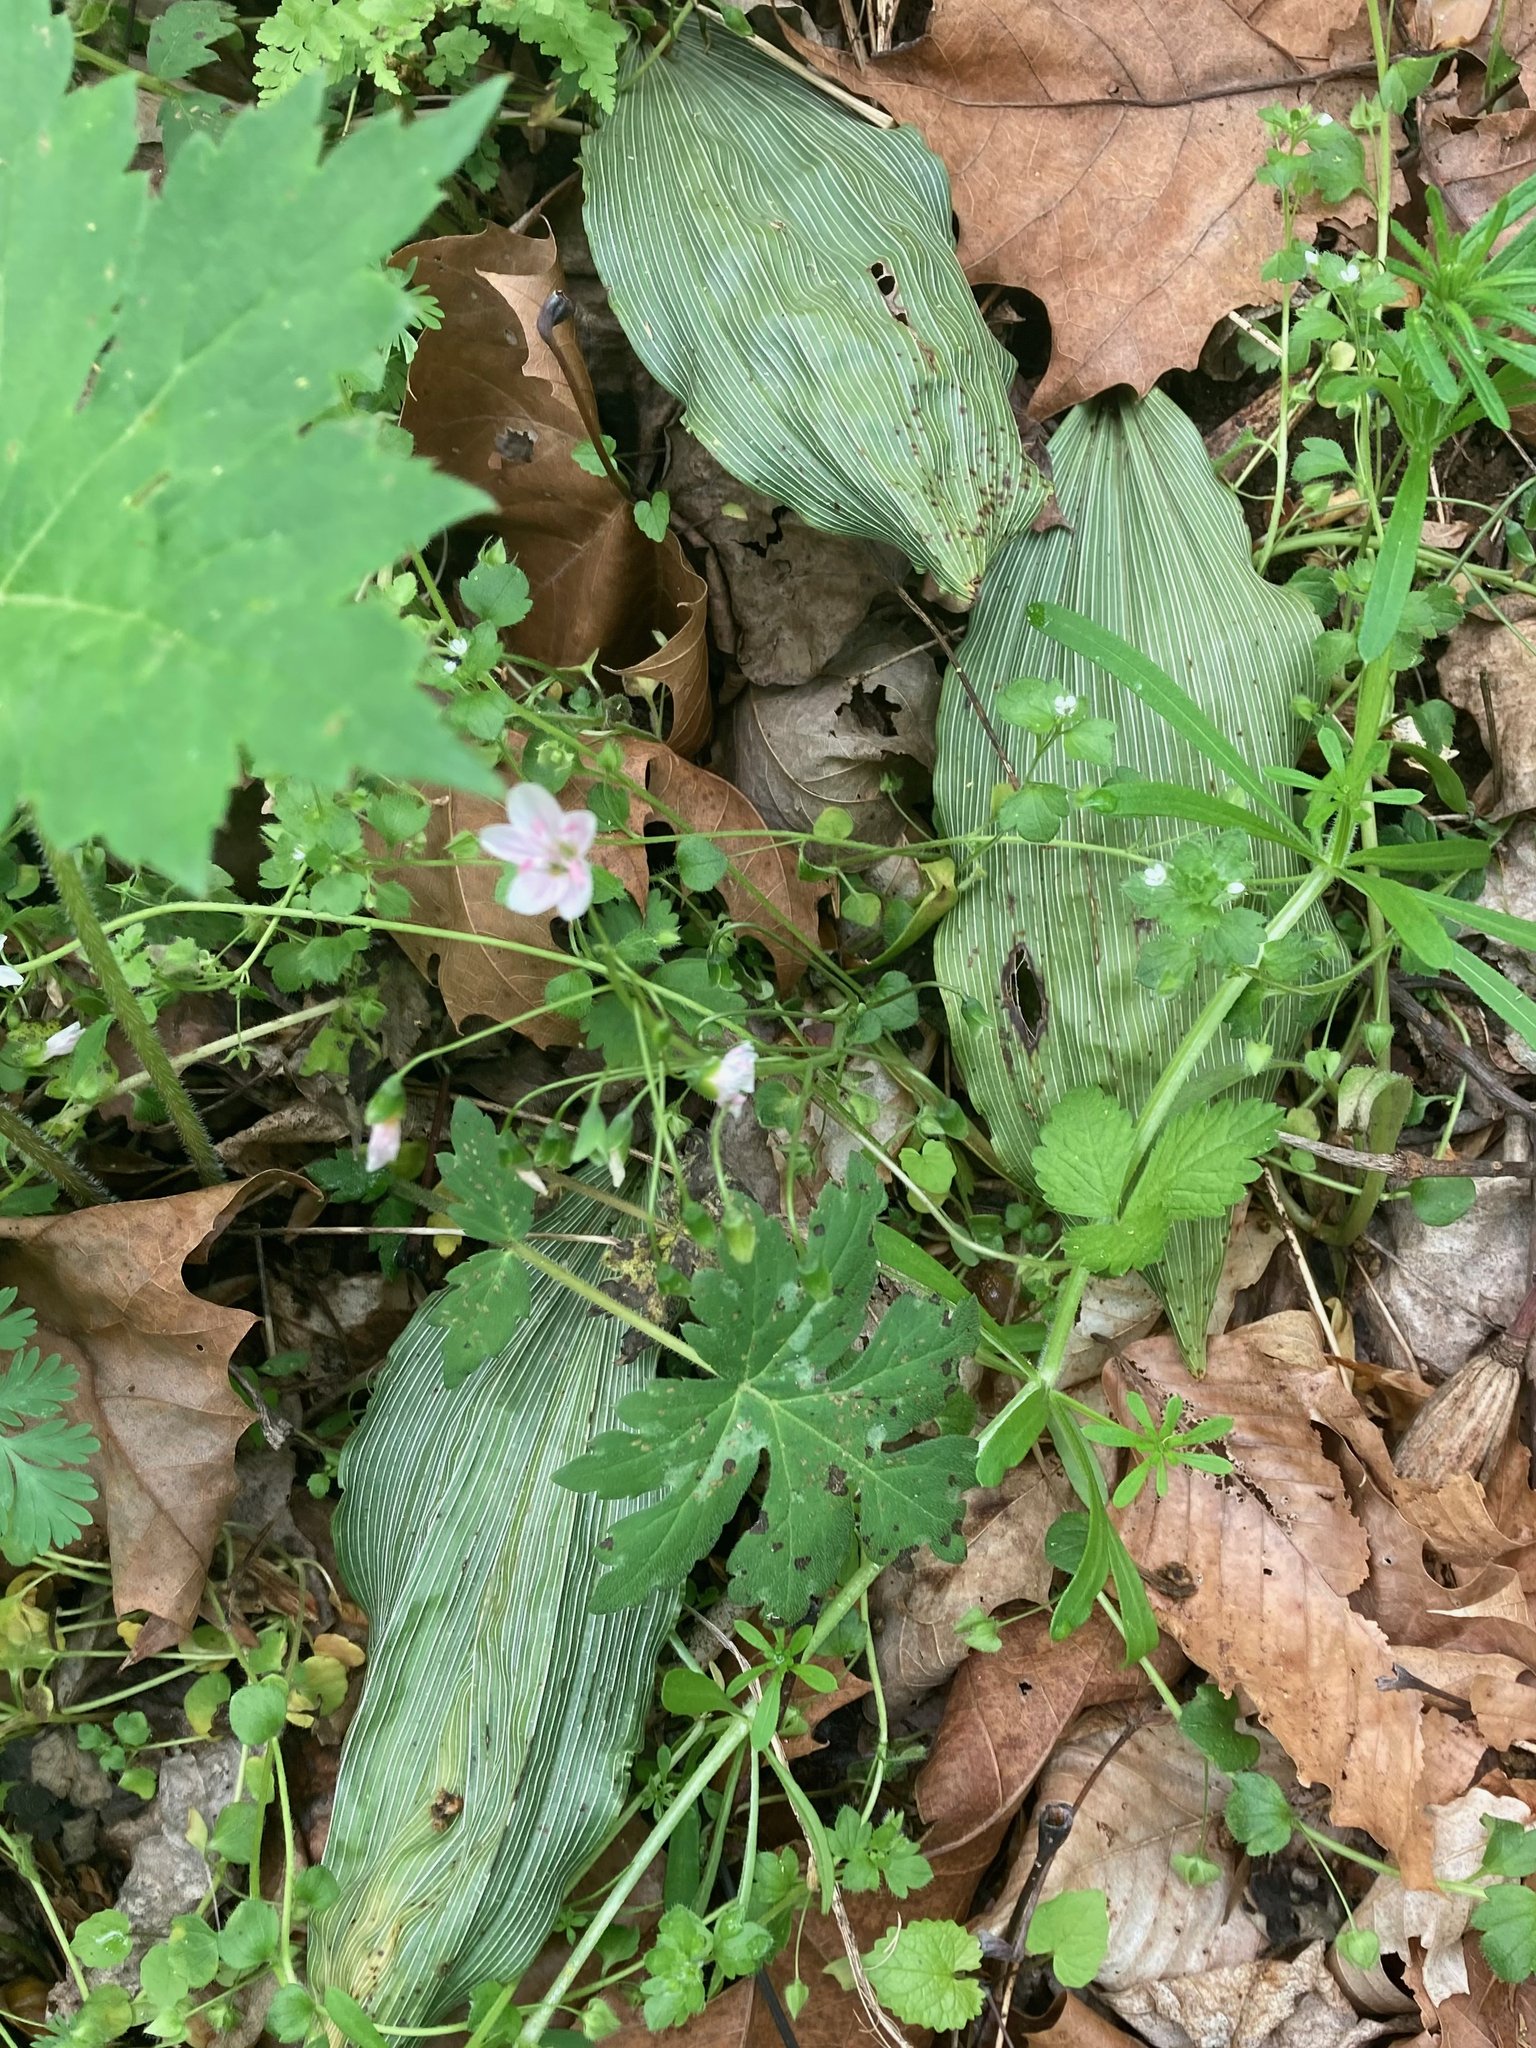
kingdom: Plantae
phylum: Tracheophyta
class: Liliopsida
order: Asparagales
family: Orchidaceae
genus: Aplectrum
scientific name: Aplectrum hyemale
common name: Adam-and-eve
